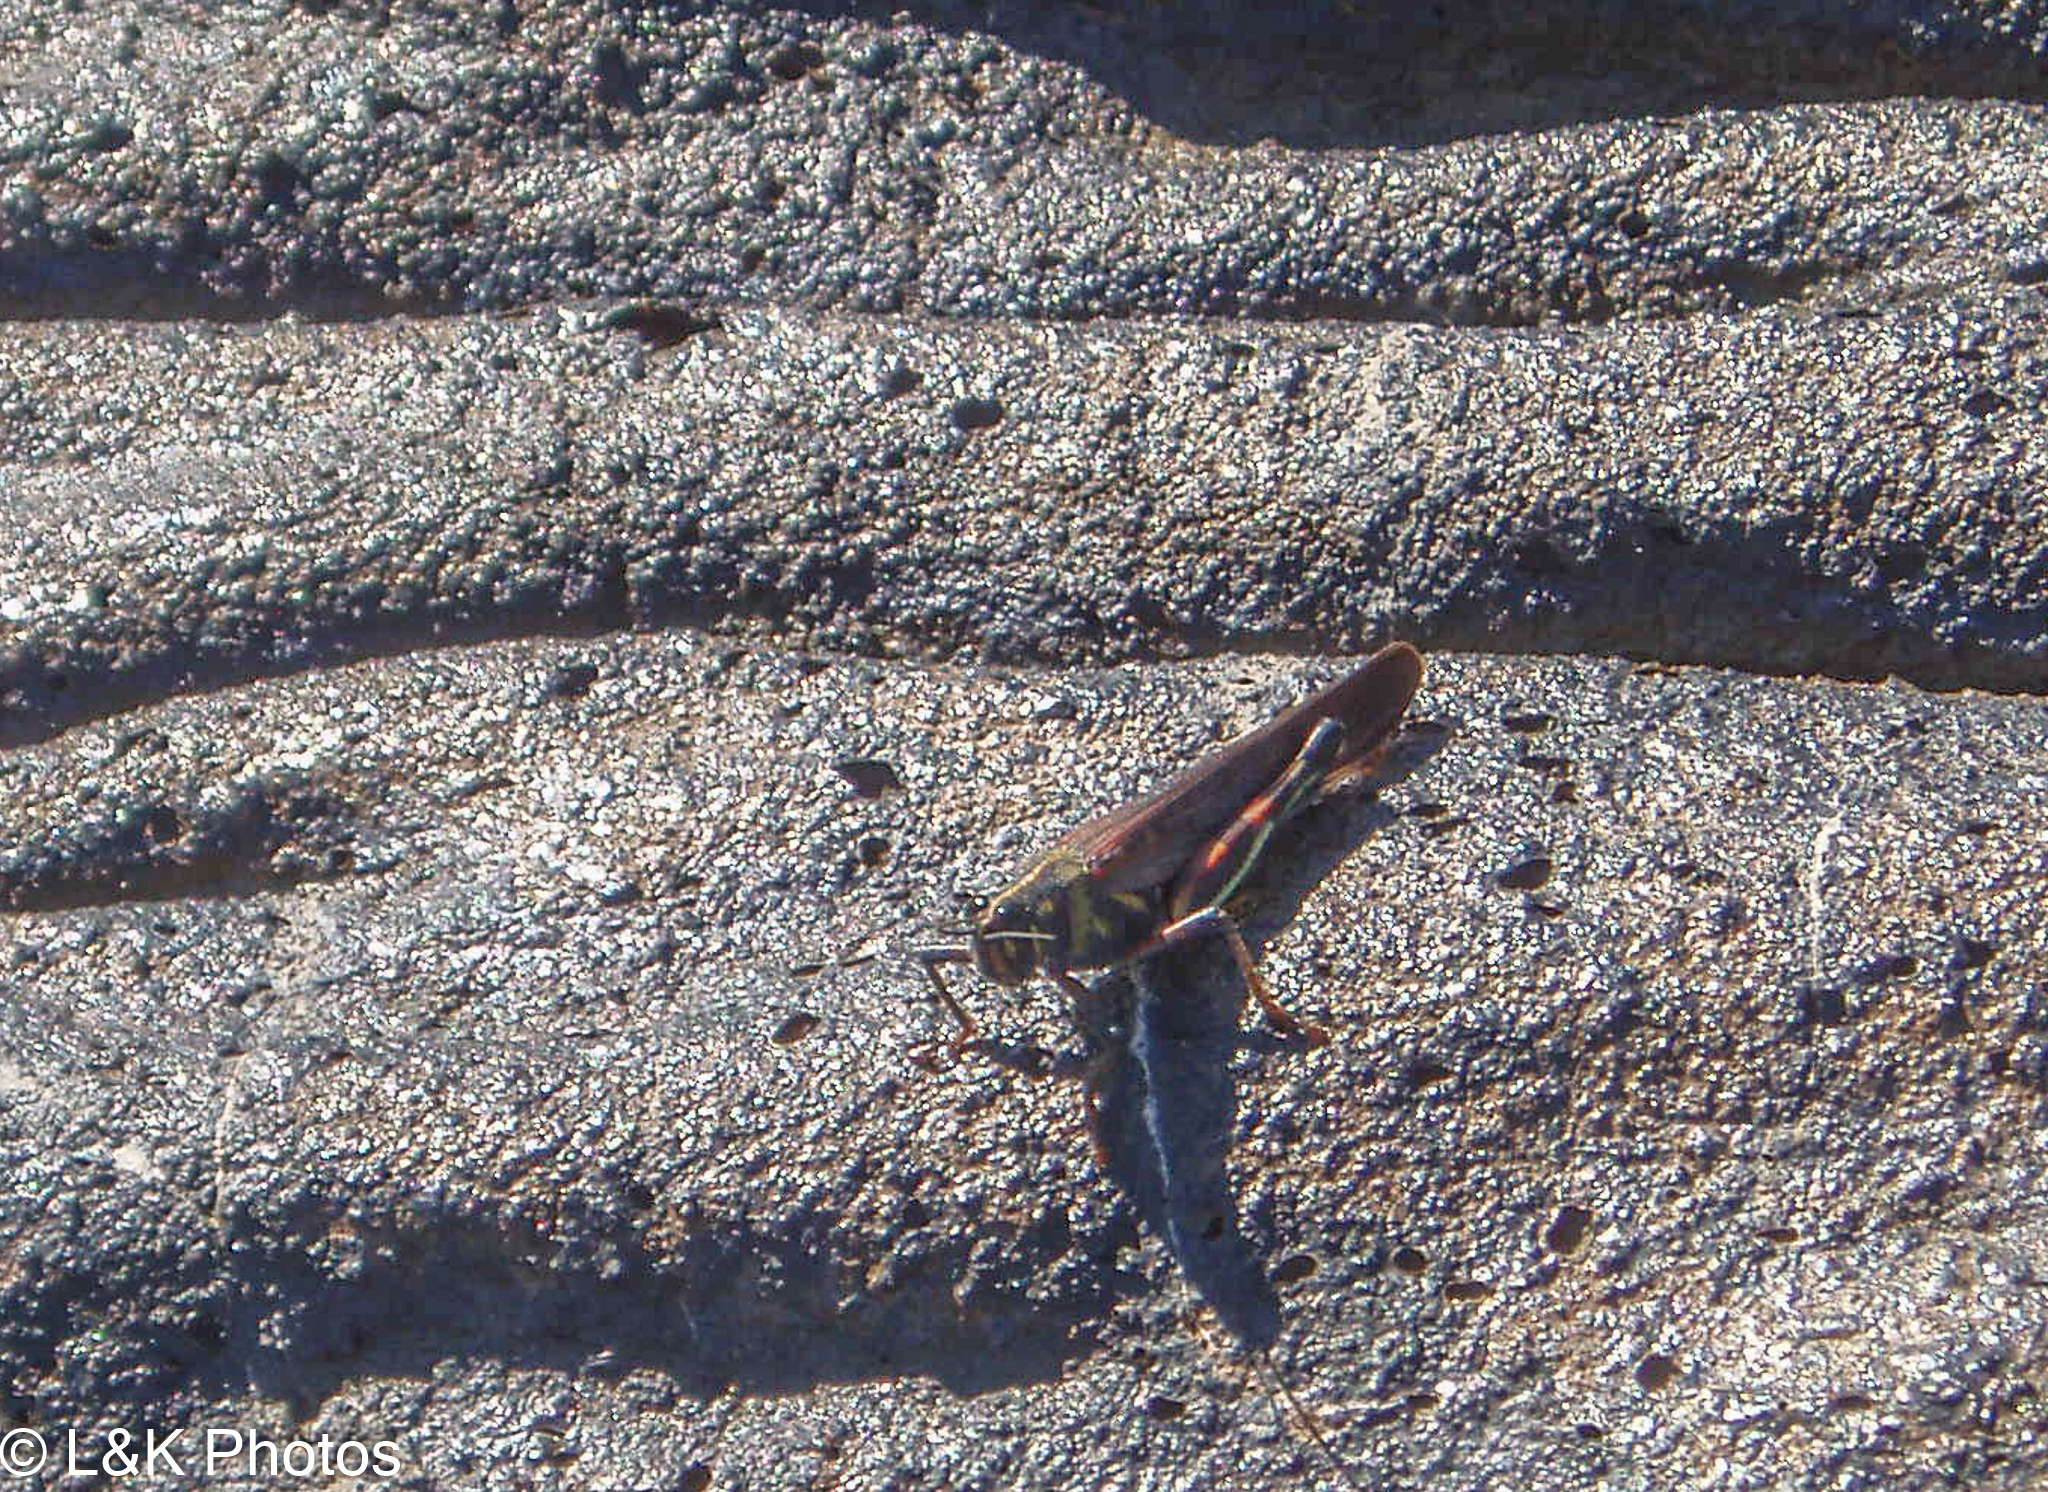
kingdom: Animalia
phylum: Arthropoda
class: Insecta
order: Orthoptera
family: Acrididae
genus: Schistocerca
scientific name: Schistocerca melanocera
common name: Large painted locust
